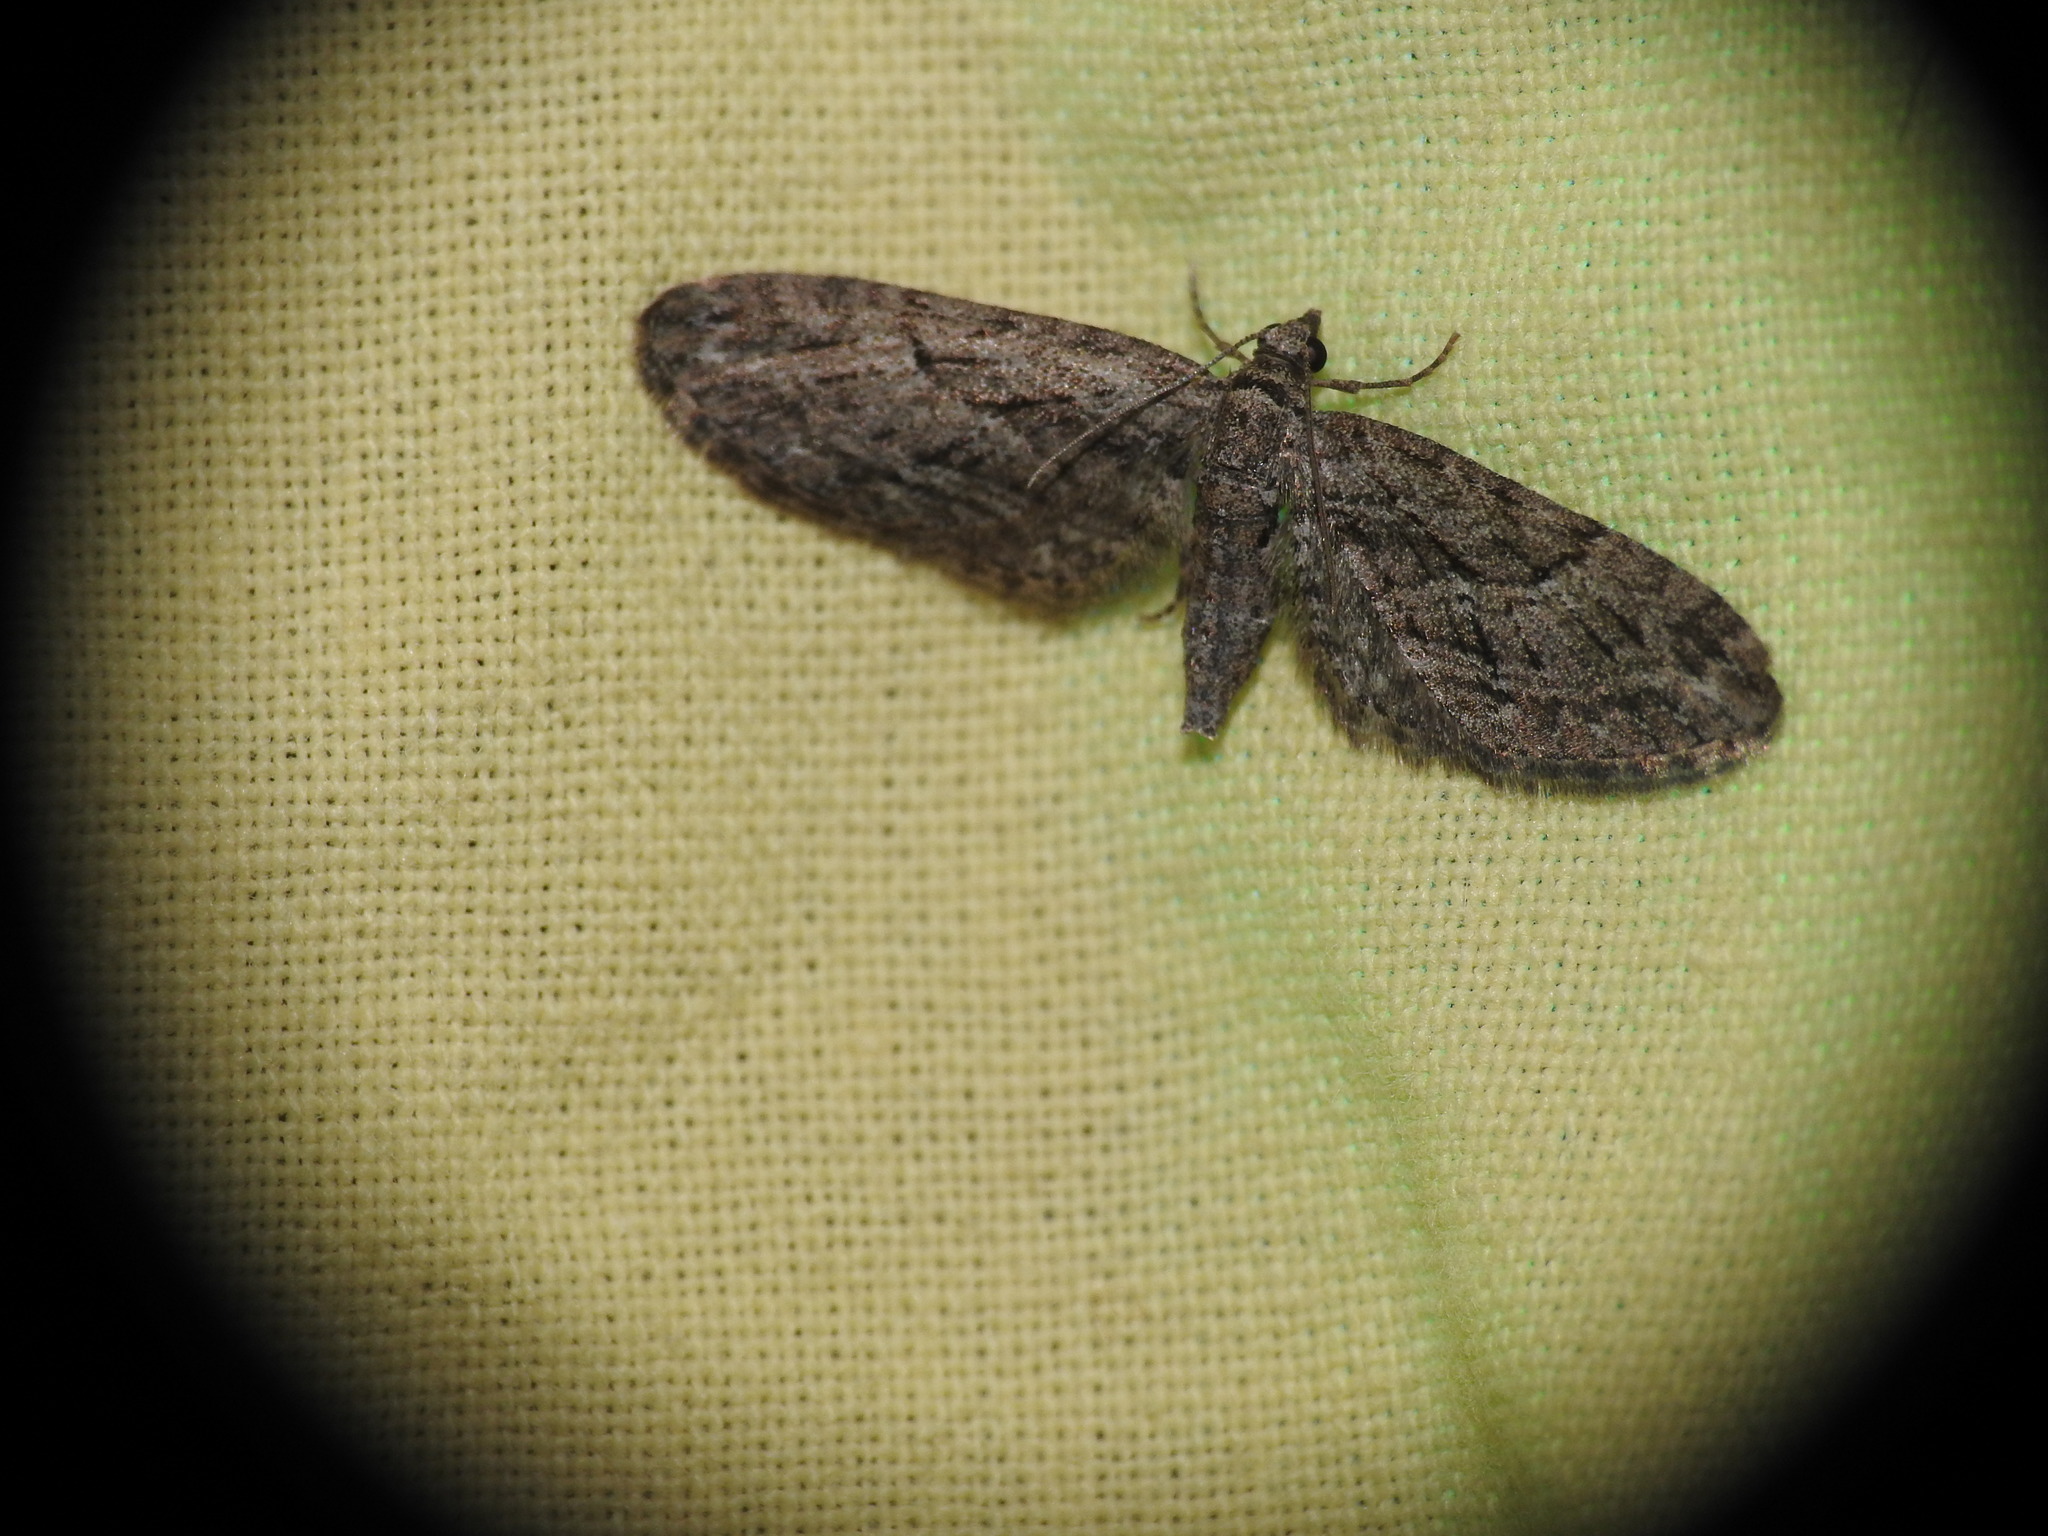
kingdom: Animalia
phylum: Arthropoda
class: Insecta
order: Lepidoptera
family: Geometridae
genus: Eupithecia
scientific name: Eupithecia oxycedrata
